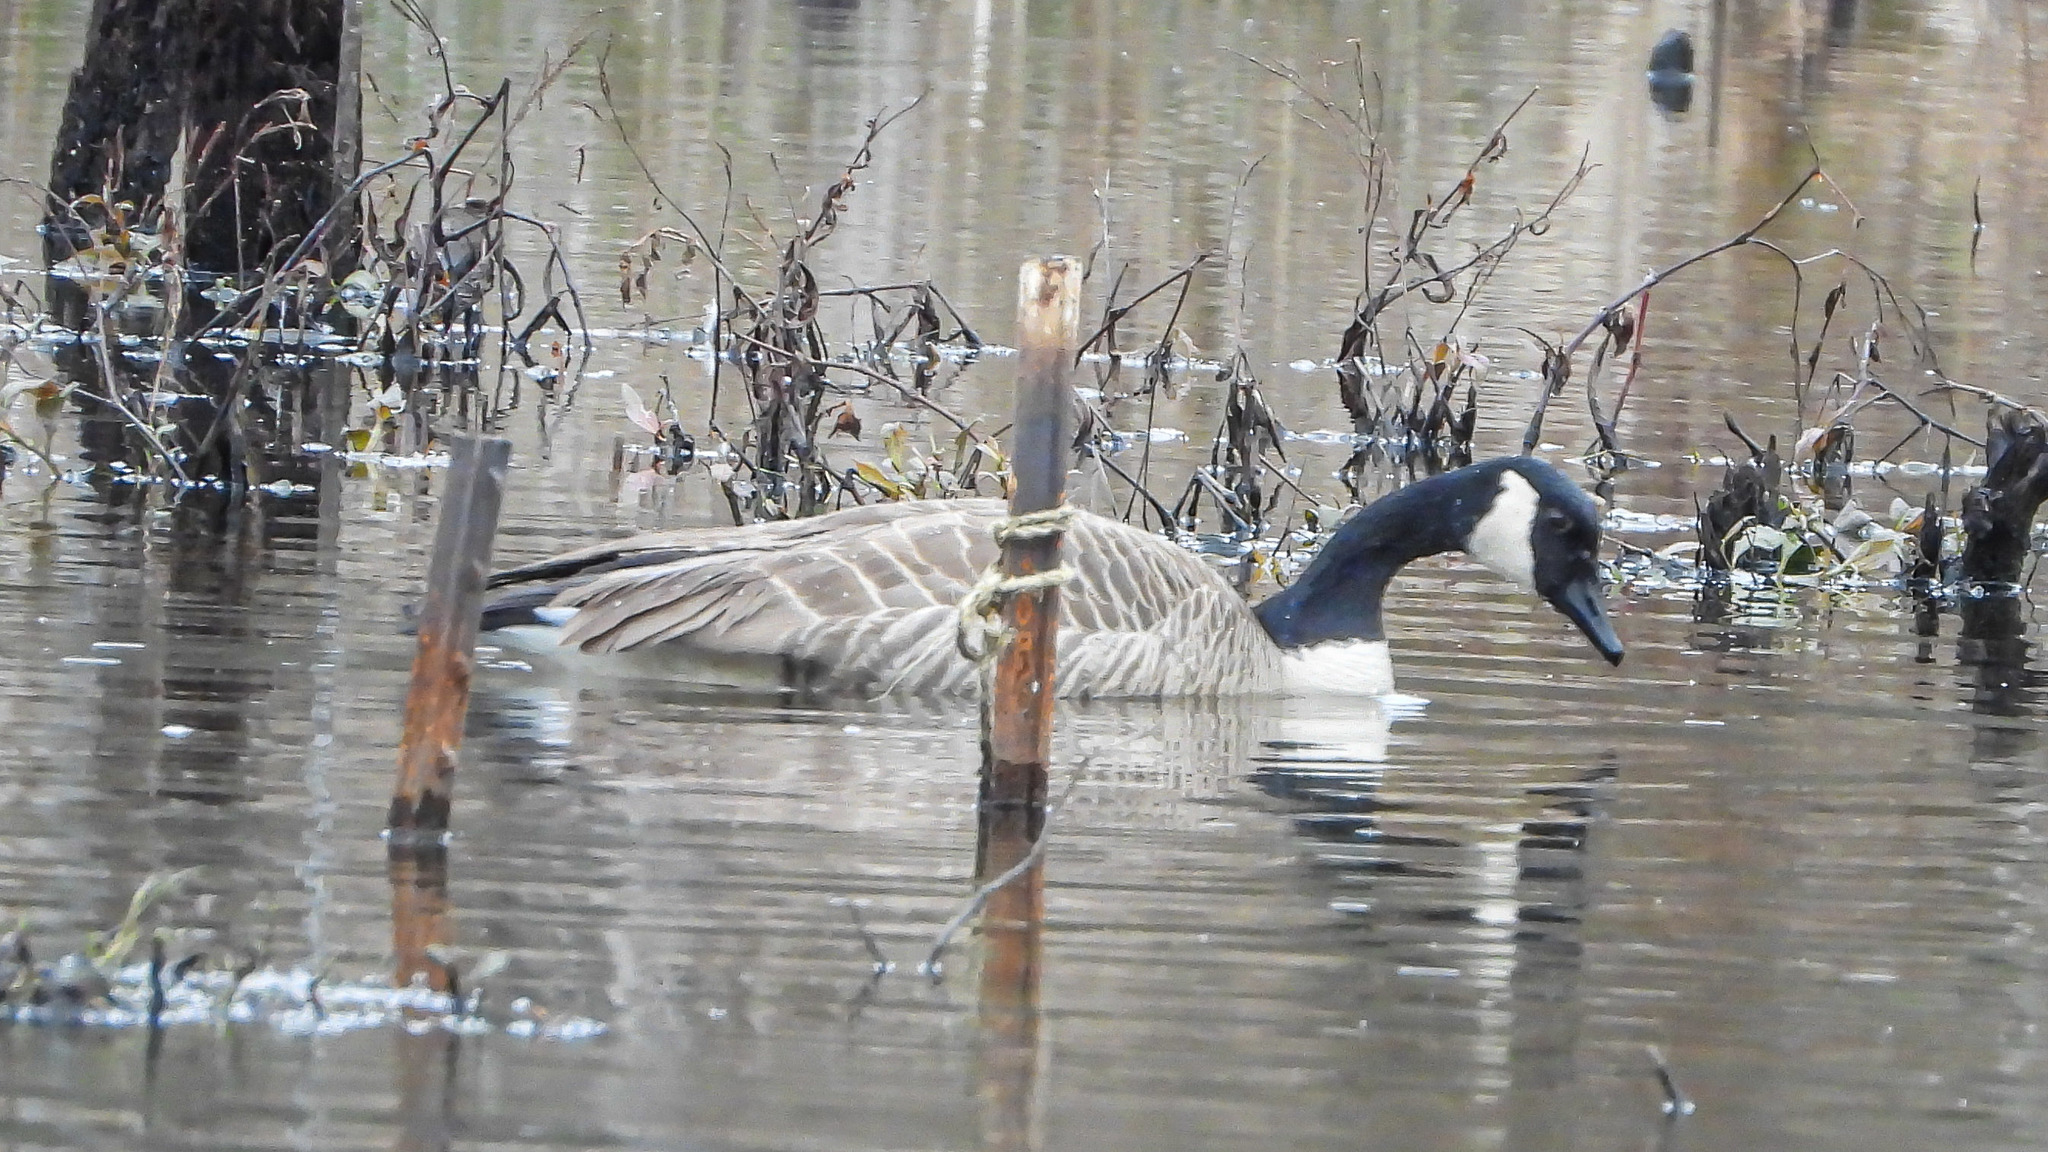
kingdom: Animalia
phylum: Chordata
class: Aves
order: Anseriformes
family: Anatidae
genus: Branta
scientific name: Branta canadensis
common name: Canada goose
